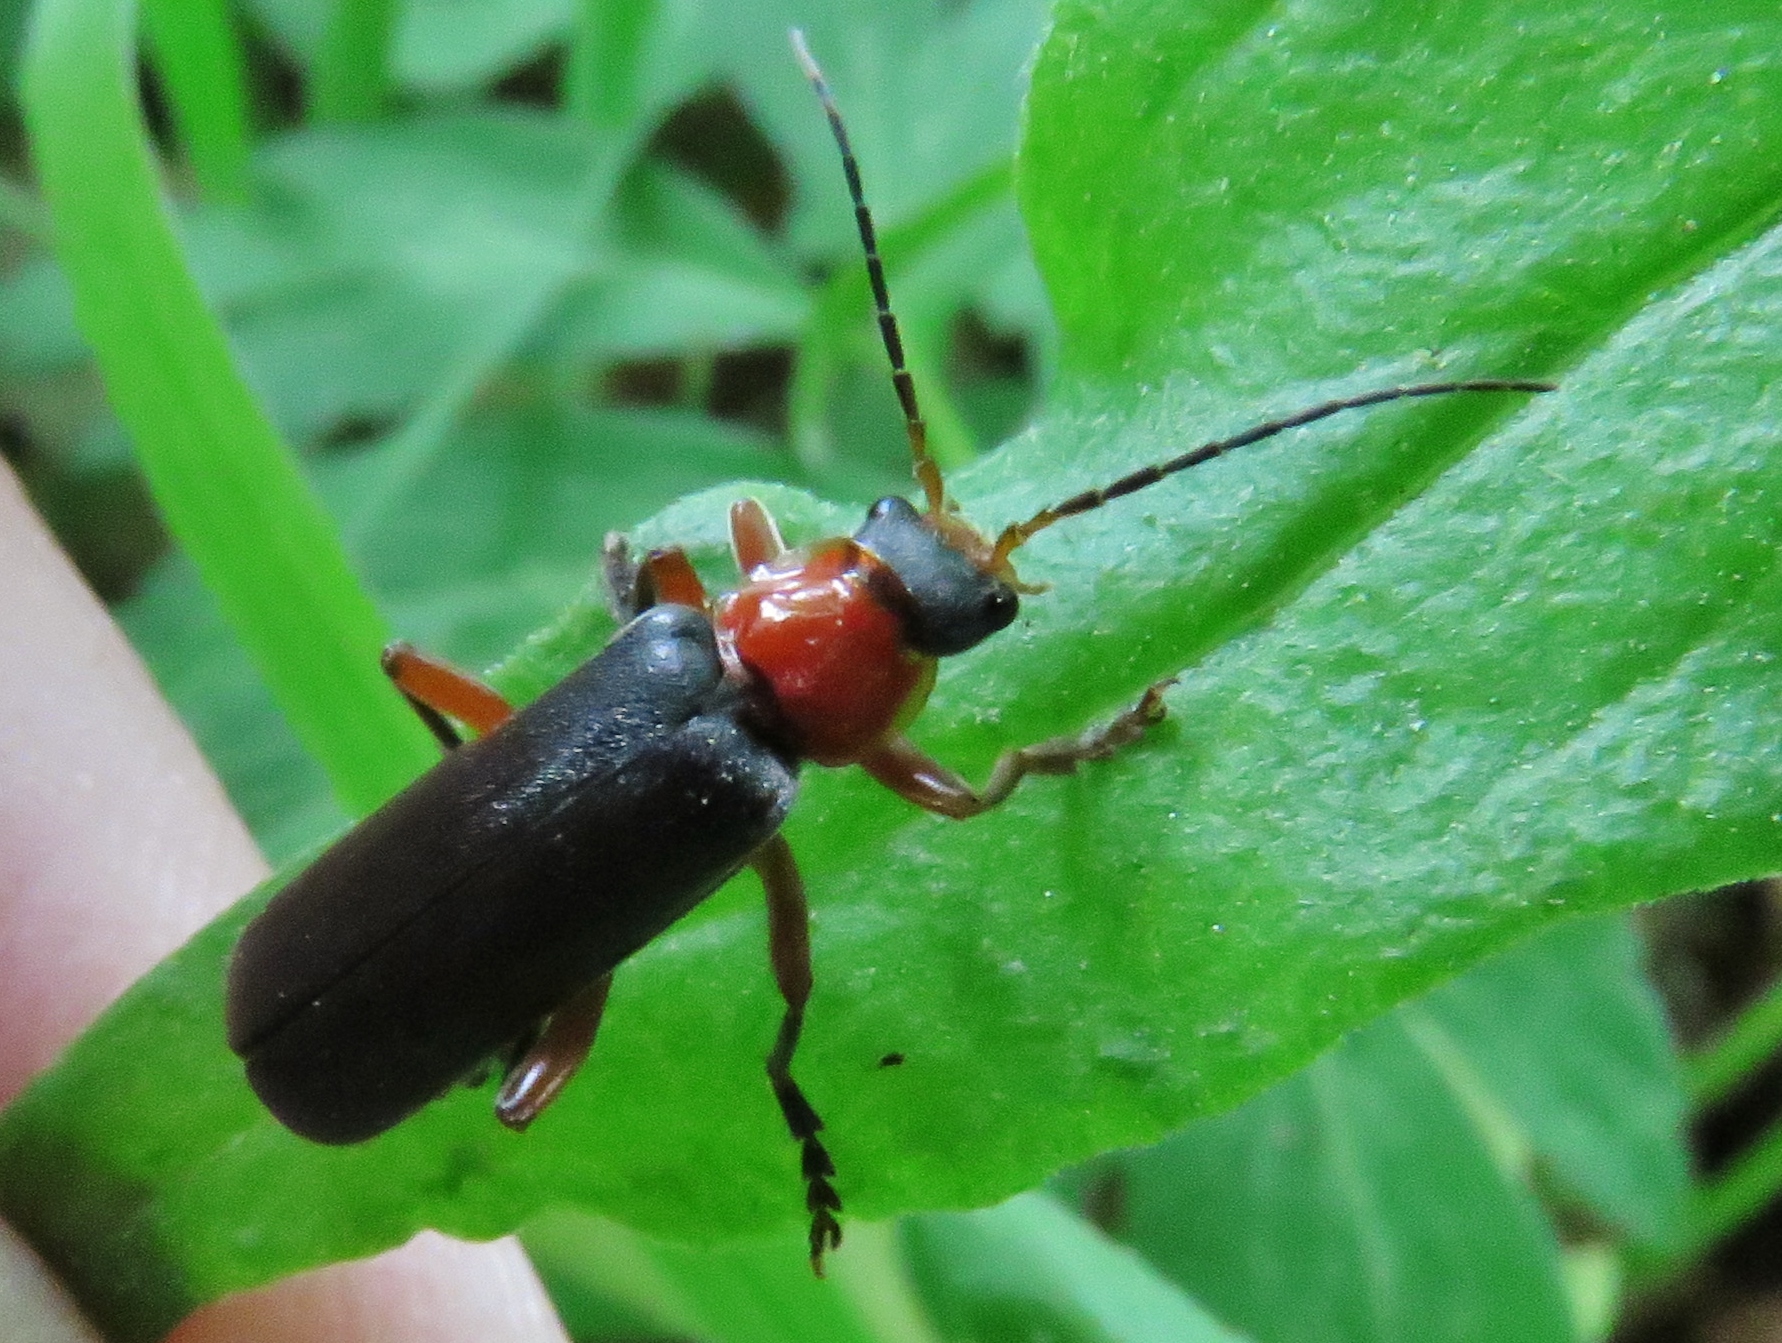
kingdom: Animalia
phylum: Arthropoda
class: Insecta
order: Coleoptera
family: Cantharidae
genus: Cantharis
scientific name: Cantharis pellucida
